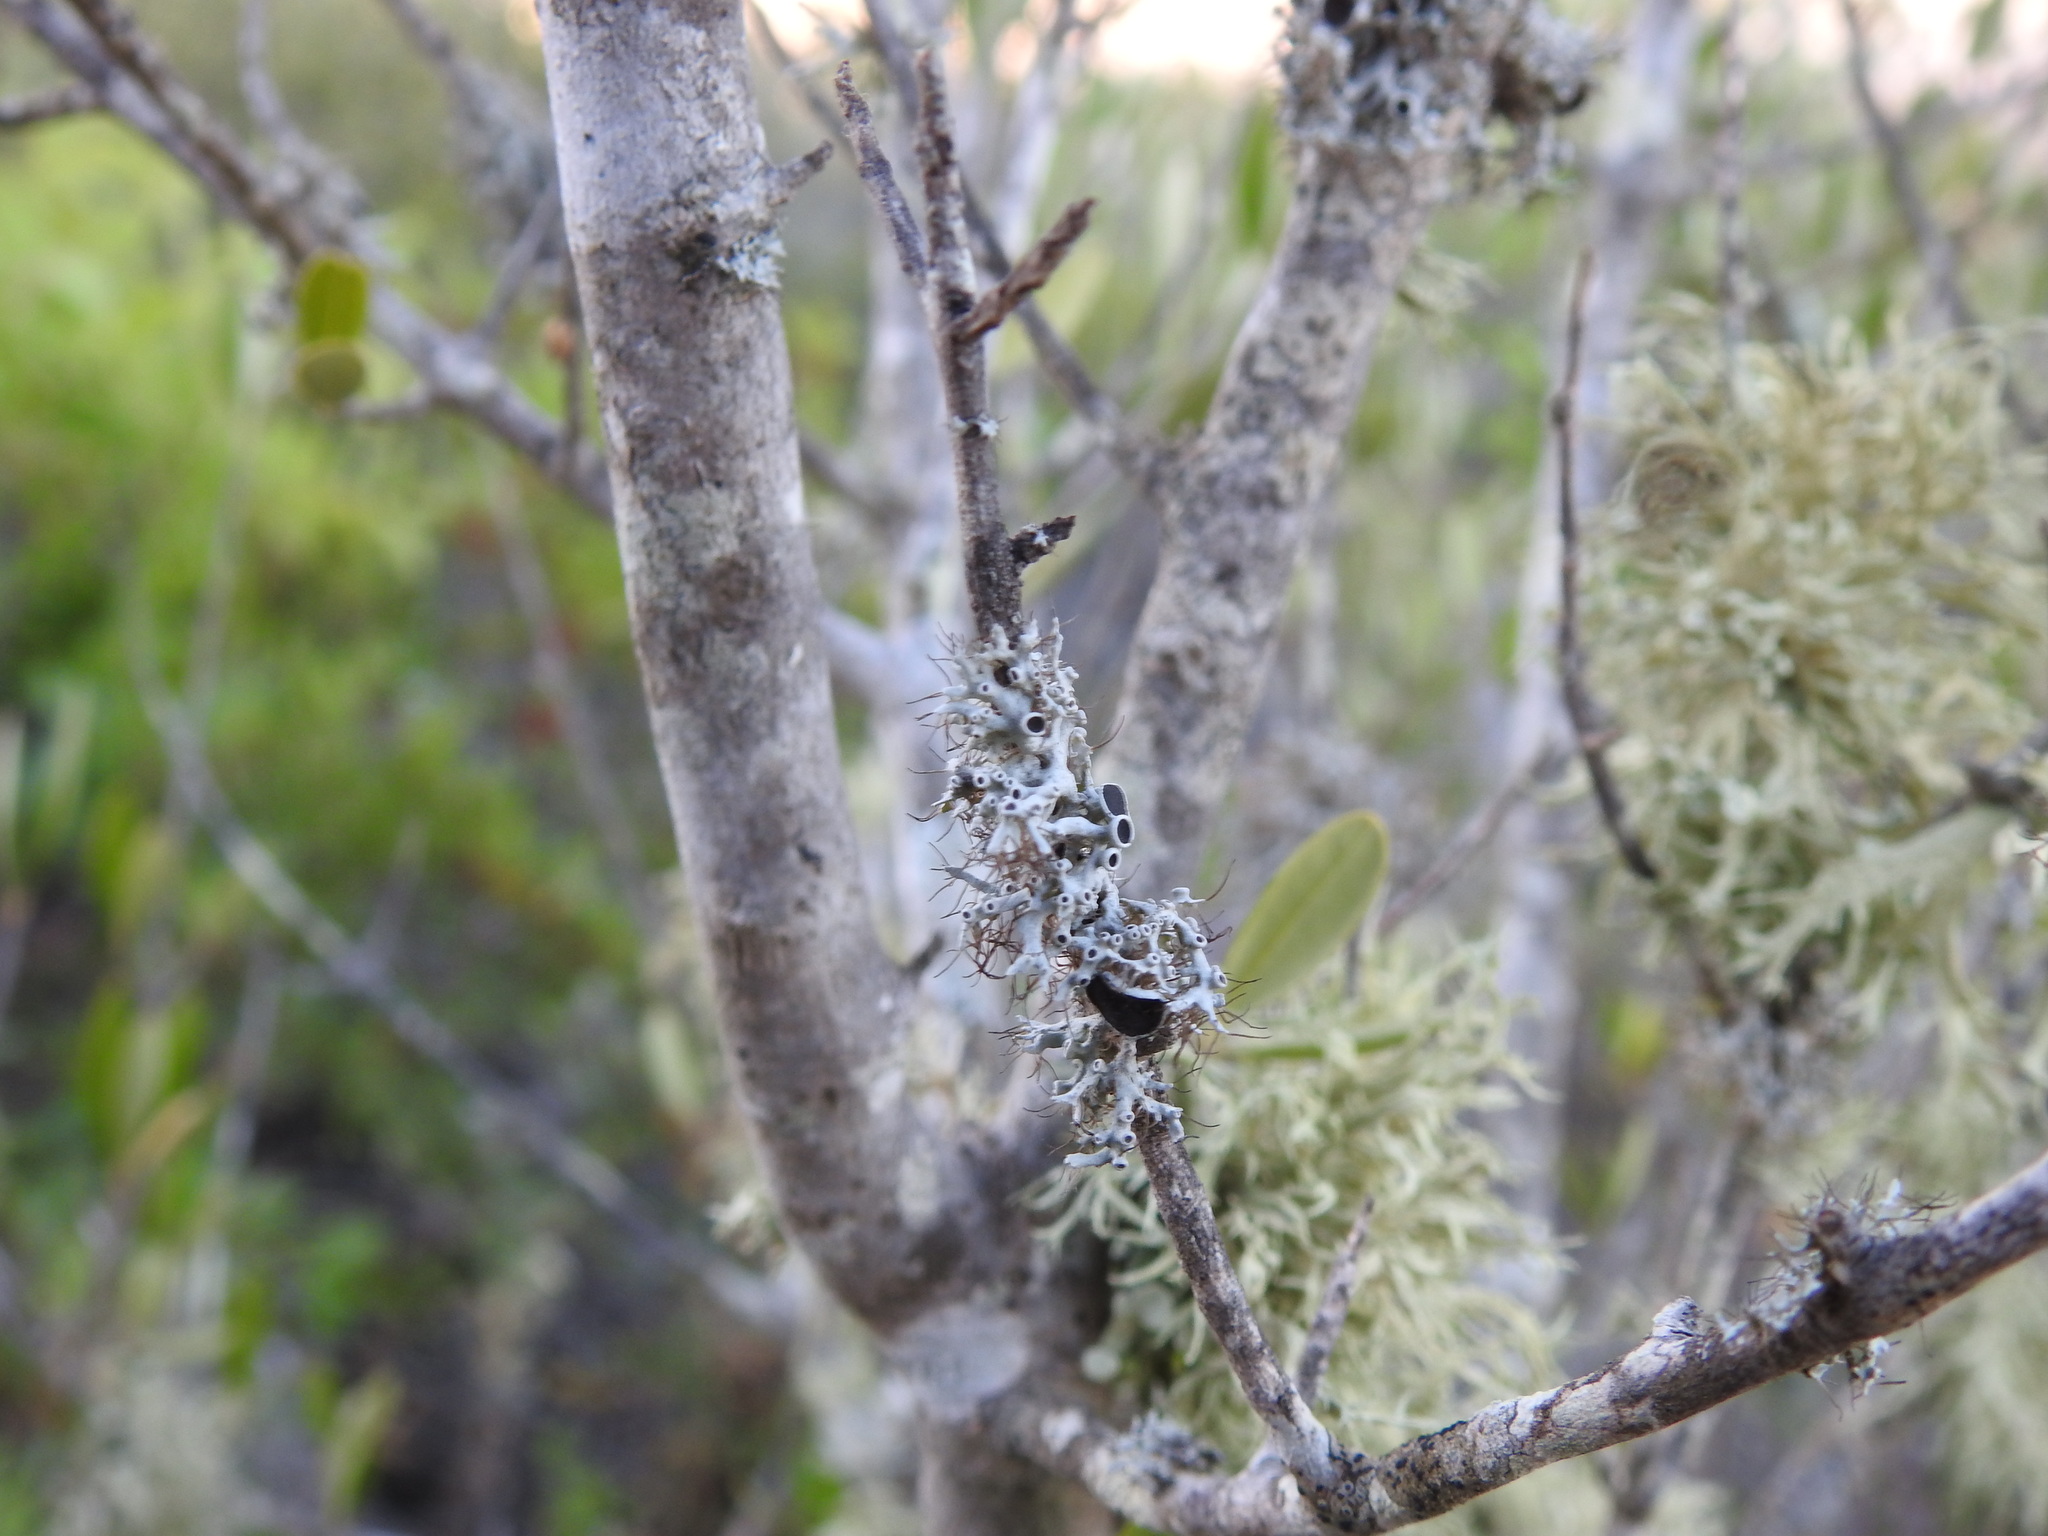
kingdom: Fungi
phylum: Ascomycota
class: Lecanoromycetes
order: Caliciales
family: Physciaceae
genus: Physcia
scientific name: Physcia leptalea
